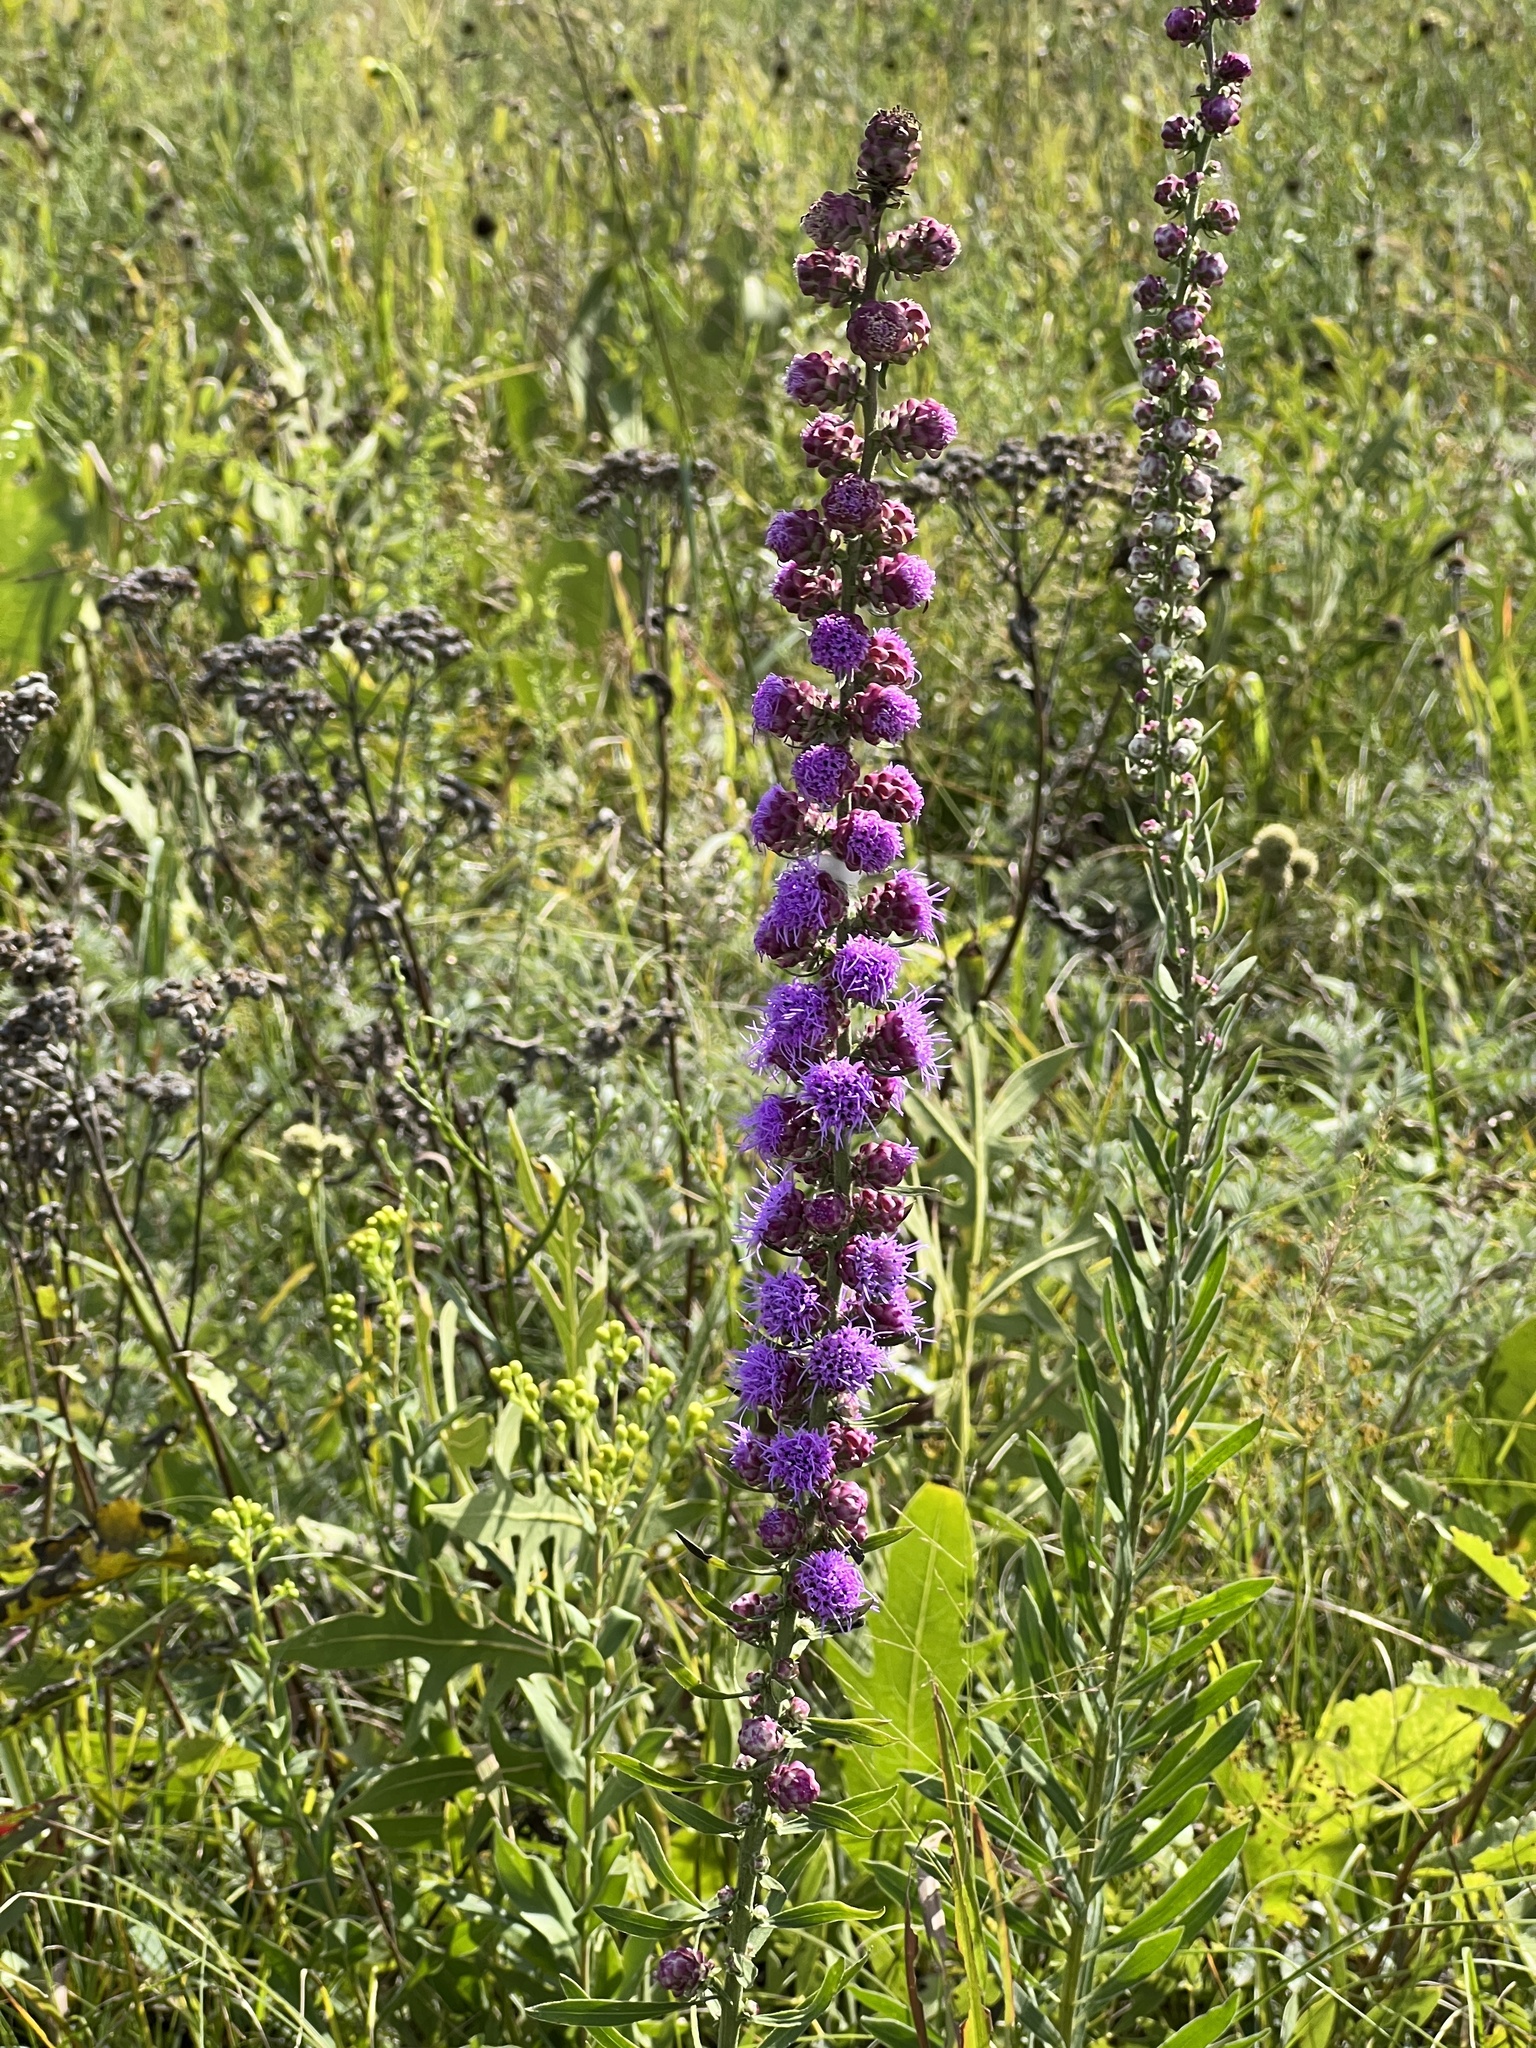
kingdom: Plantae
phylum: Tracheophyta
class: Magnoliopsida
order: Asterales
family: Asteraceae
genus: Liatris
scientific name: Liatris aspera
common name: Lacerate blazing-star
